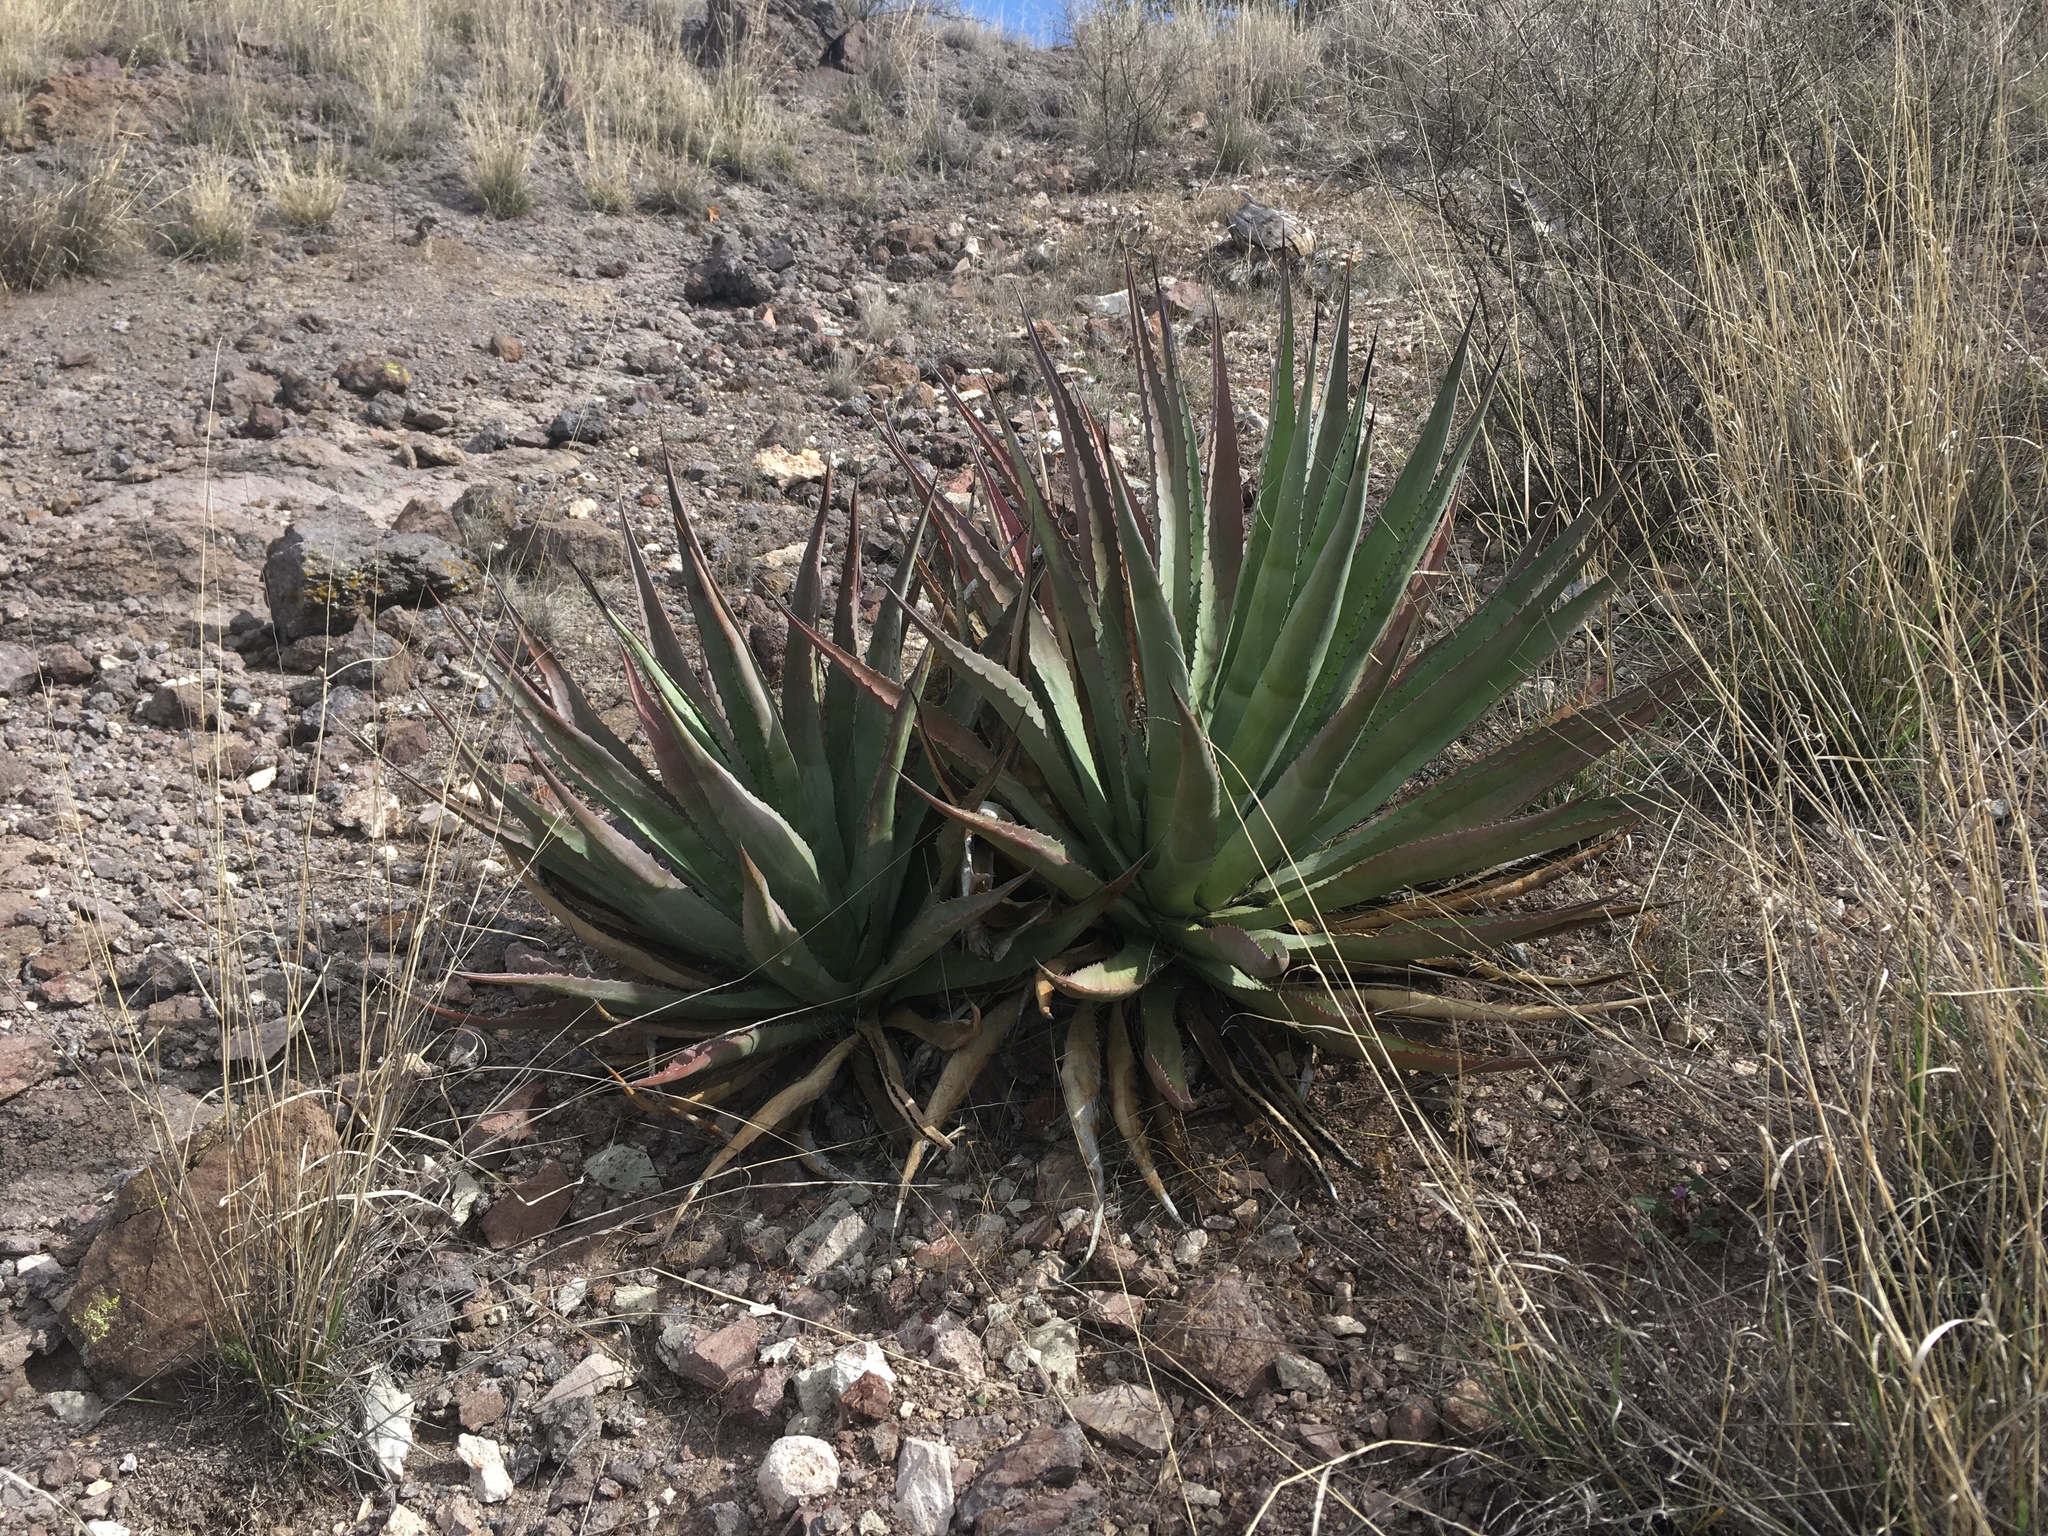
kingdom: Plantae
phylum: Tracheophyta
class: Liliopsida
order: Asparagales
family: Asparagaceae
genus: Agave
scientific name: Agave palmeri
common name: Palmer agave
